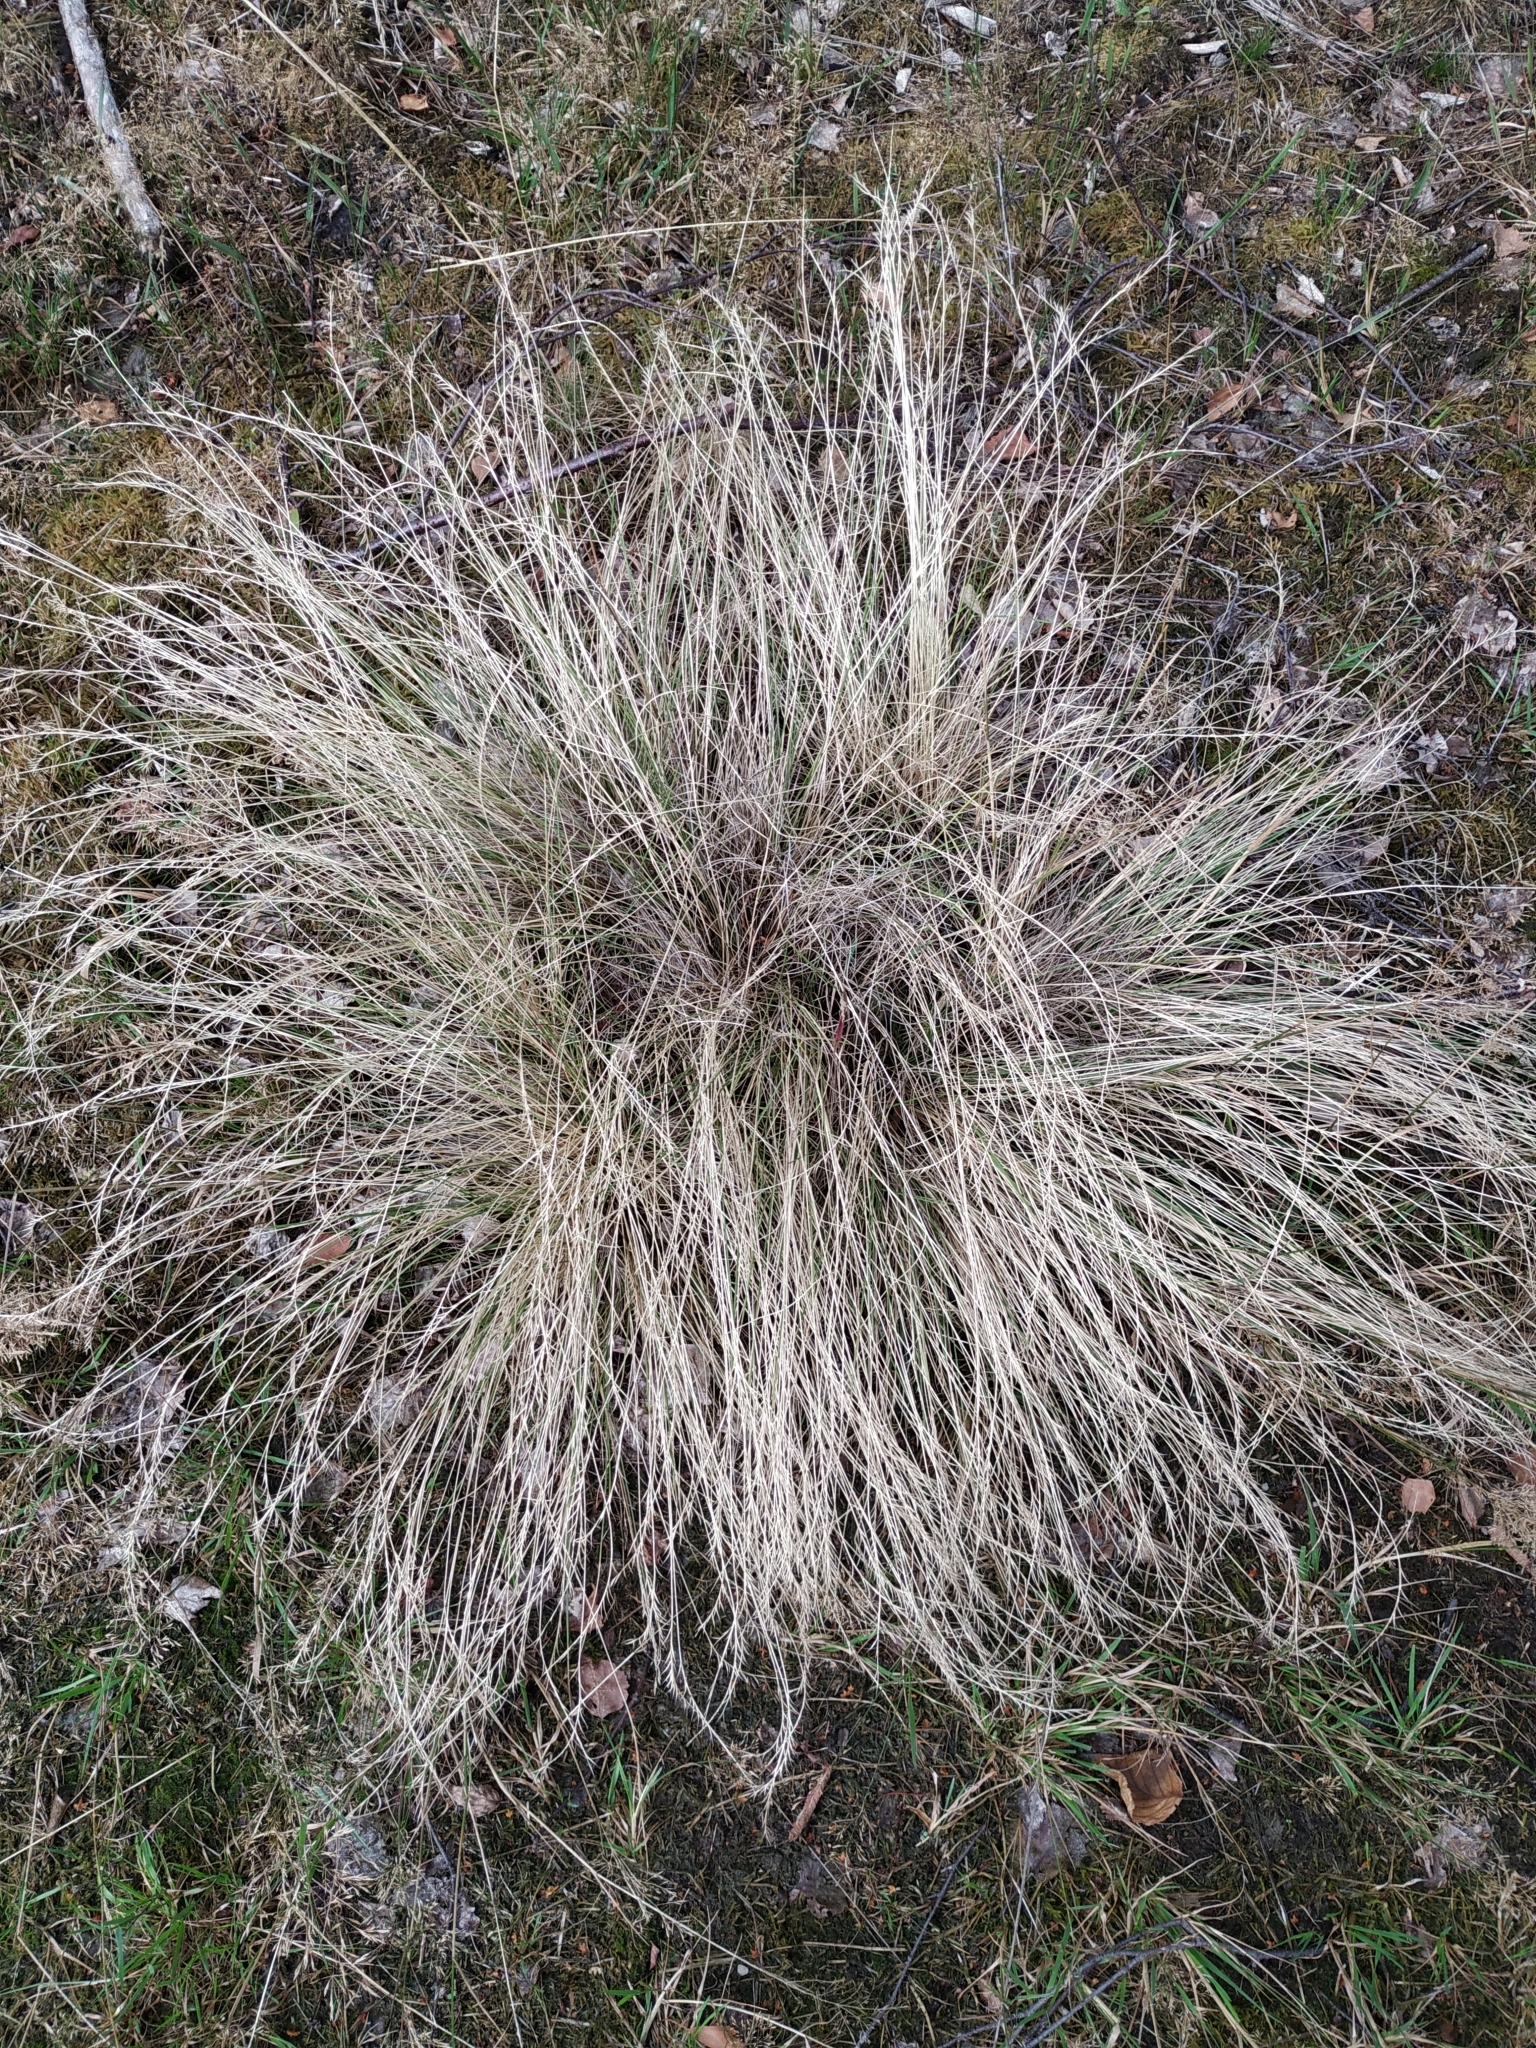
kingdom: Plantae
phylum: Tracheophyta
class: Liliopsida
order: Poales
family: Poaceae
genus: Nardus
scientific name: Nardus stricta
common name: Mat-grass
